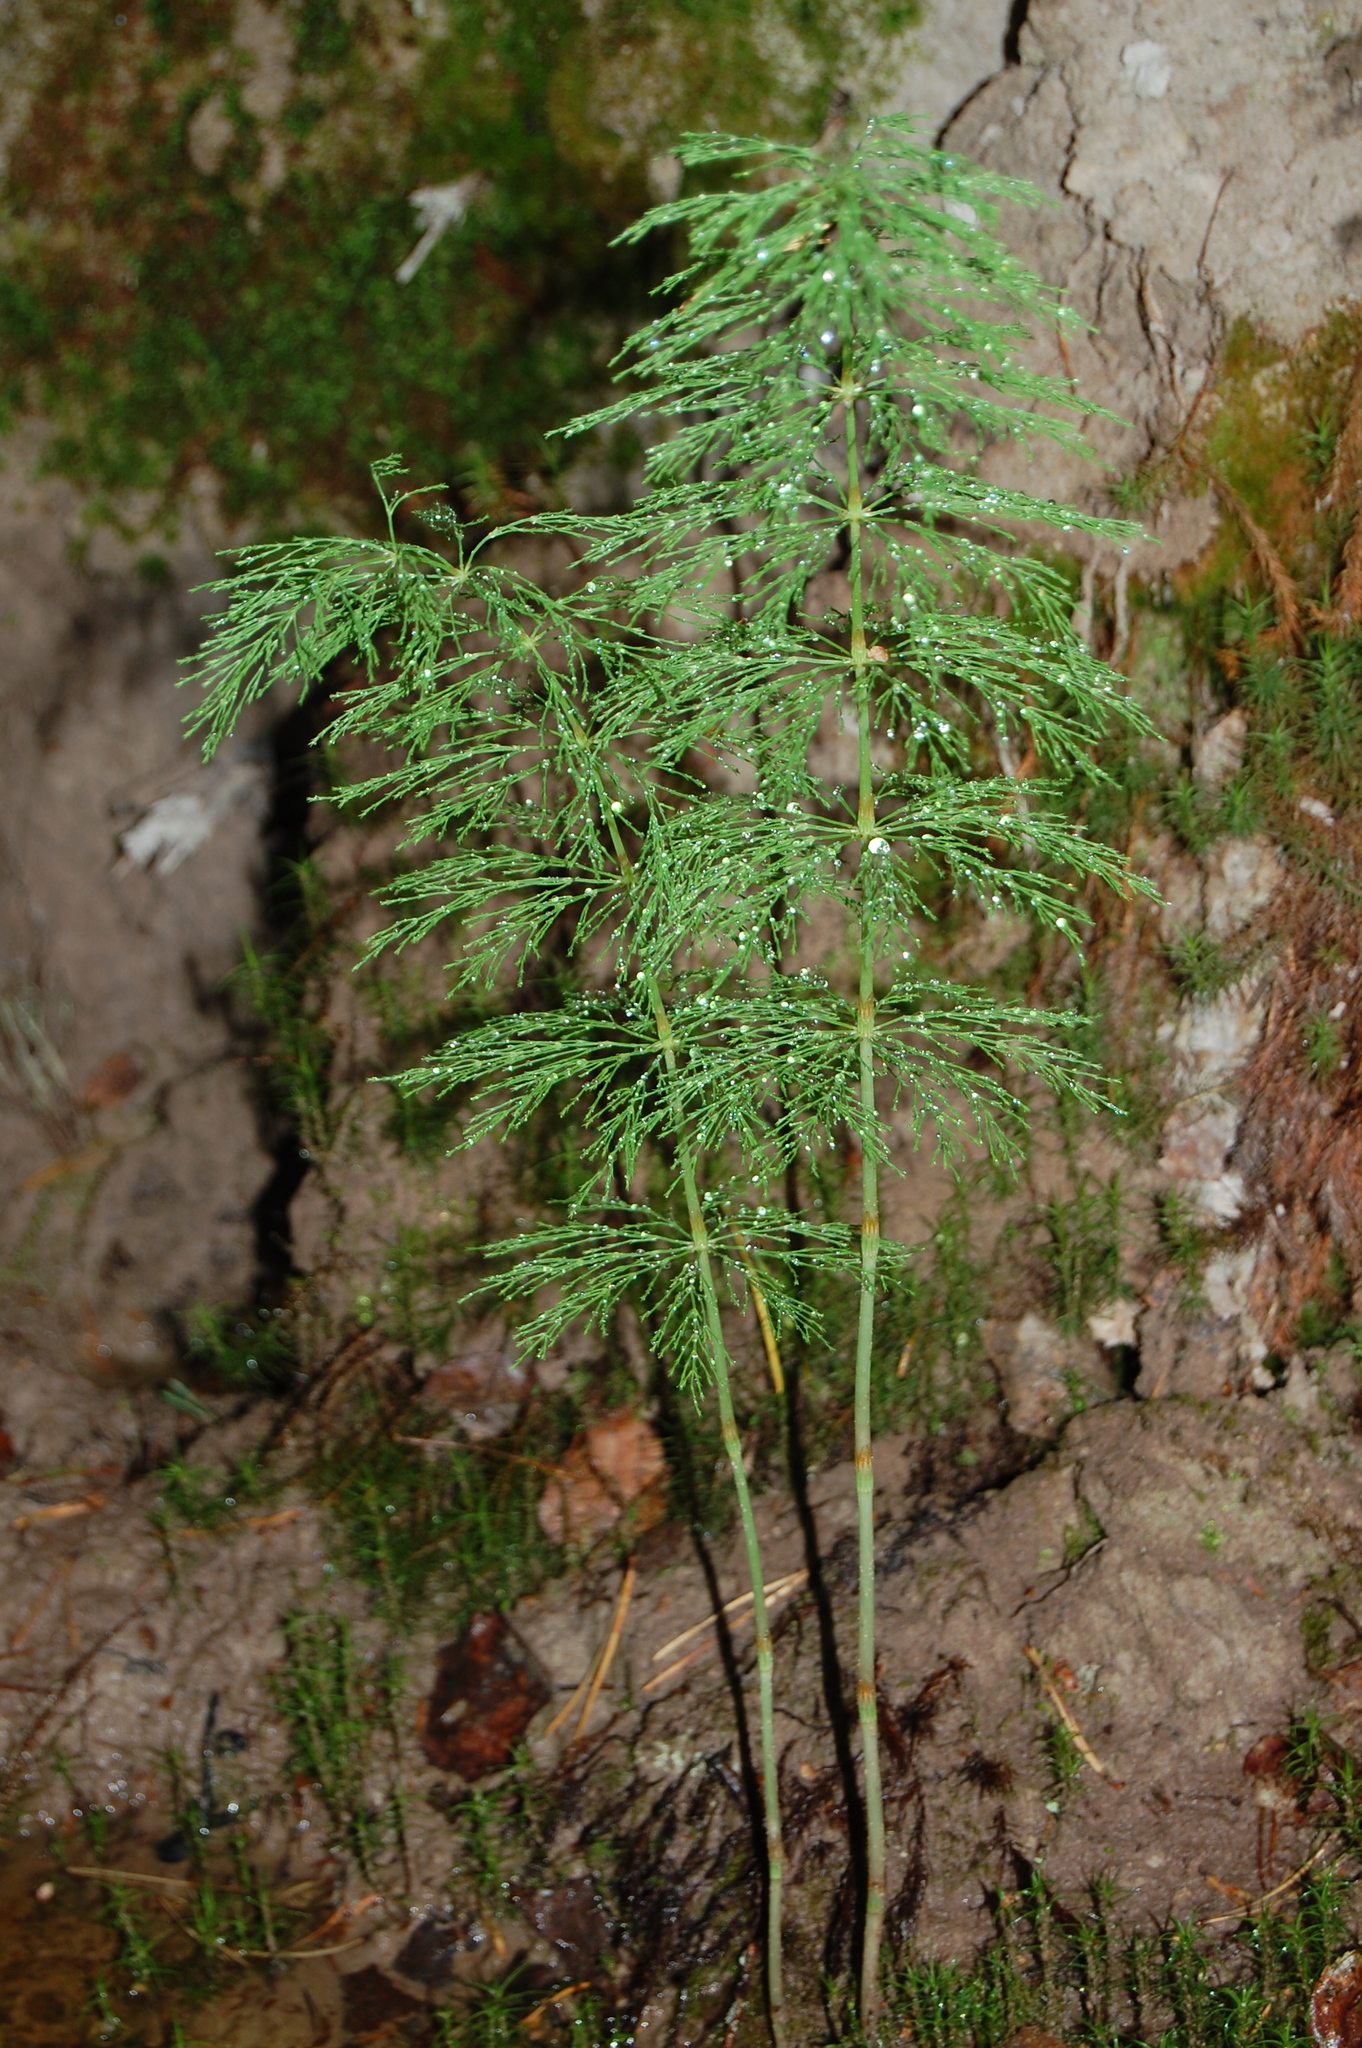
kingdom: Plantae
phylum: Tracheophyta
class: Polypodiopsida
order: Equisetales
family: Equisetaceae
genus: Equisetum
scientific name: Equisetum sylvaticum
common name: Wood horsetail
